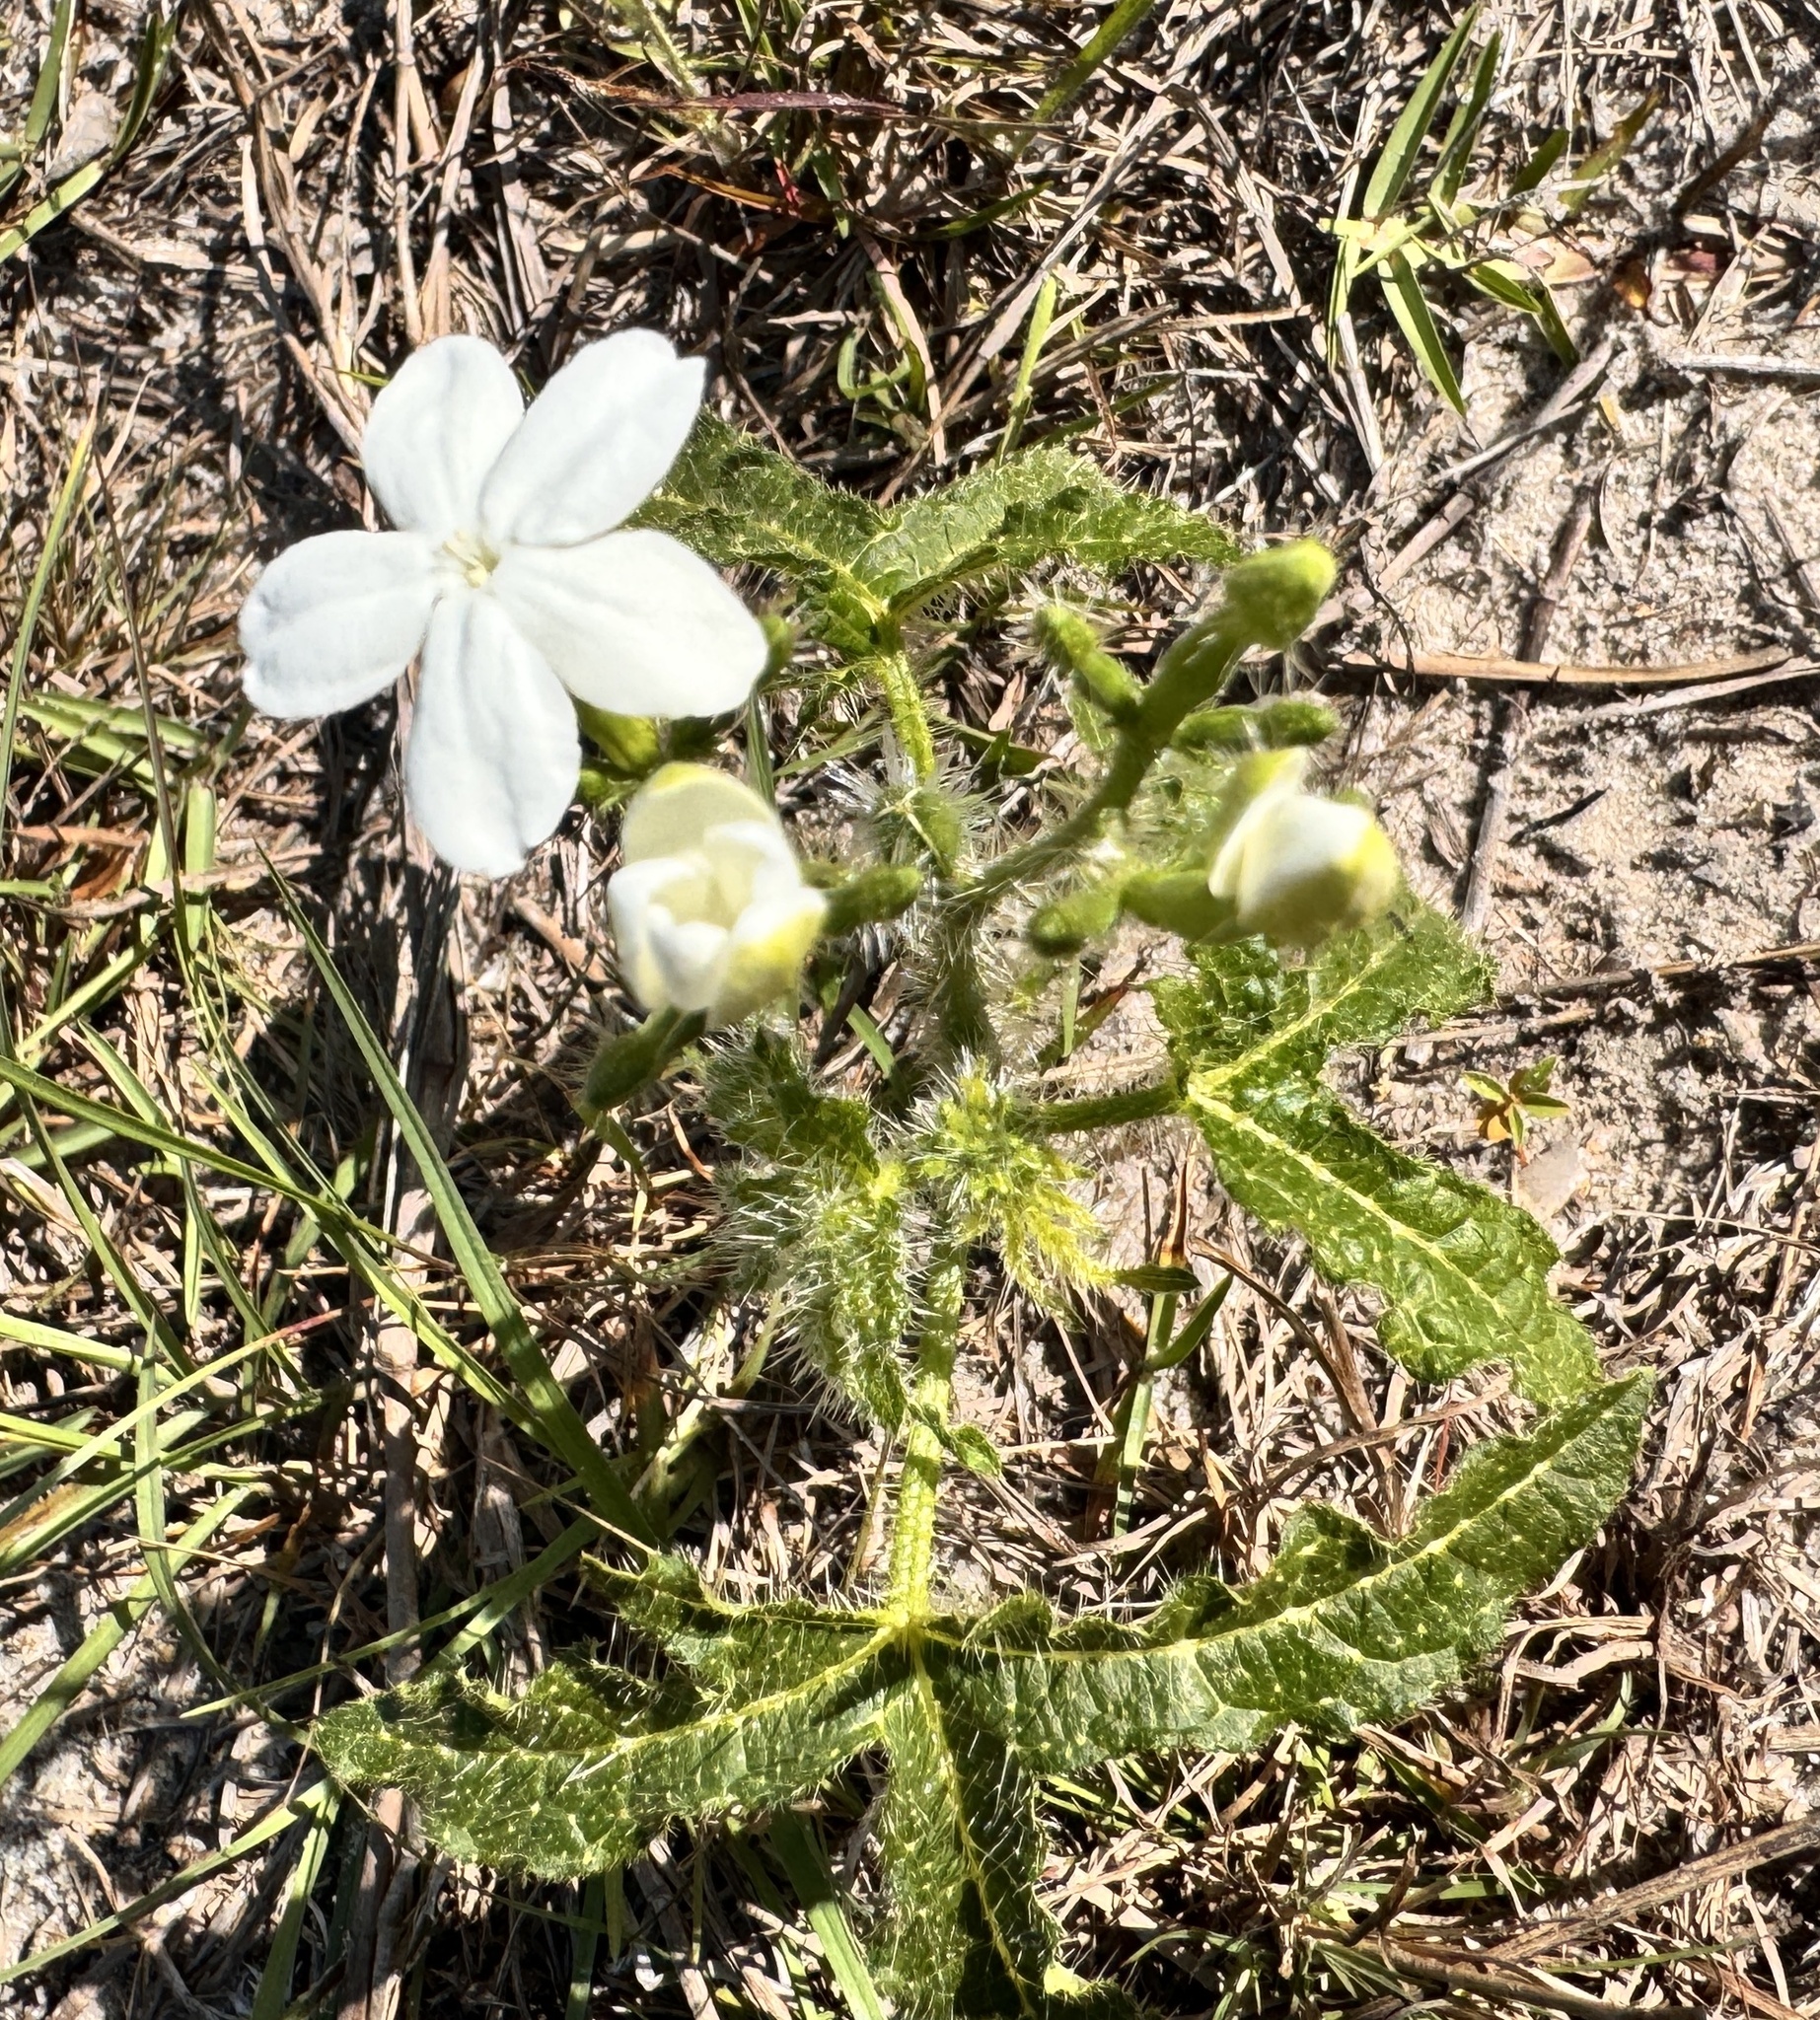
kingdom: Plantae
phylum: Tracheophyta
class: Magnoliopsida
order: Malpighiales
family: Euphorbiaceae
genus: Cnidoscolus
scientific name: Cnidoscolus stimulosus
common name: Bull-nettle
